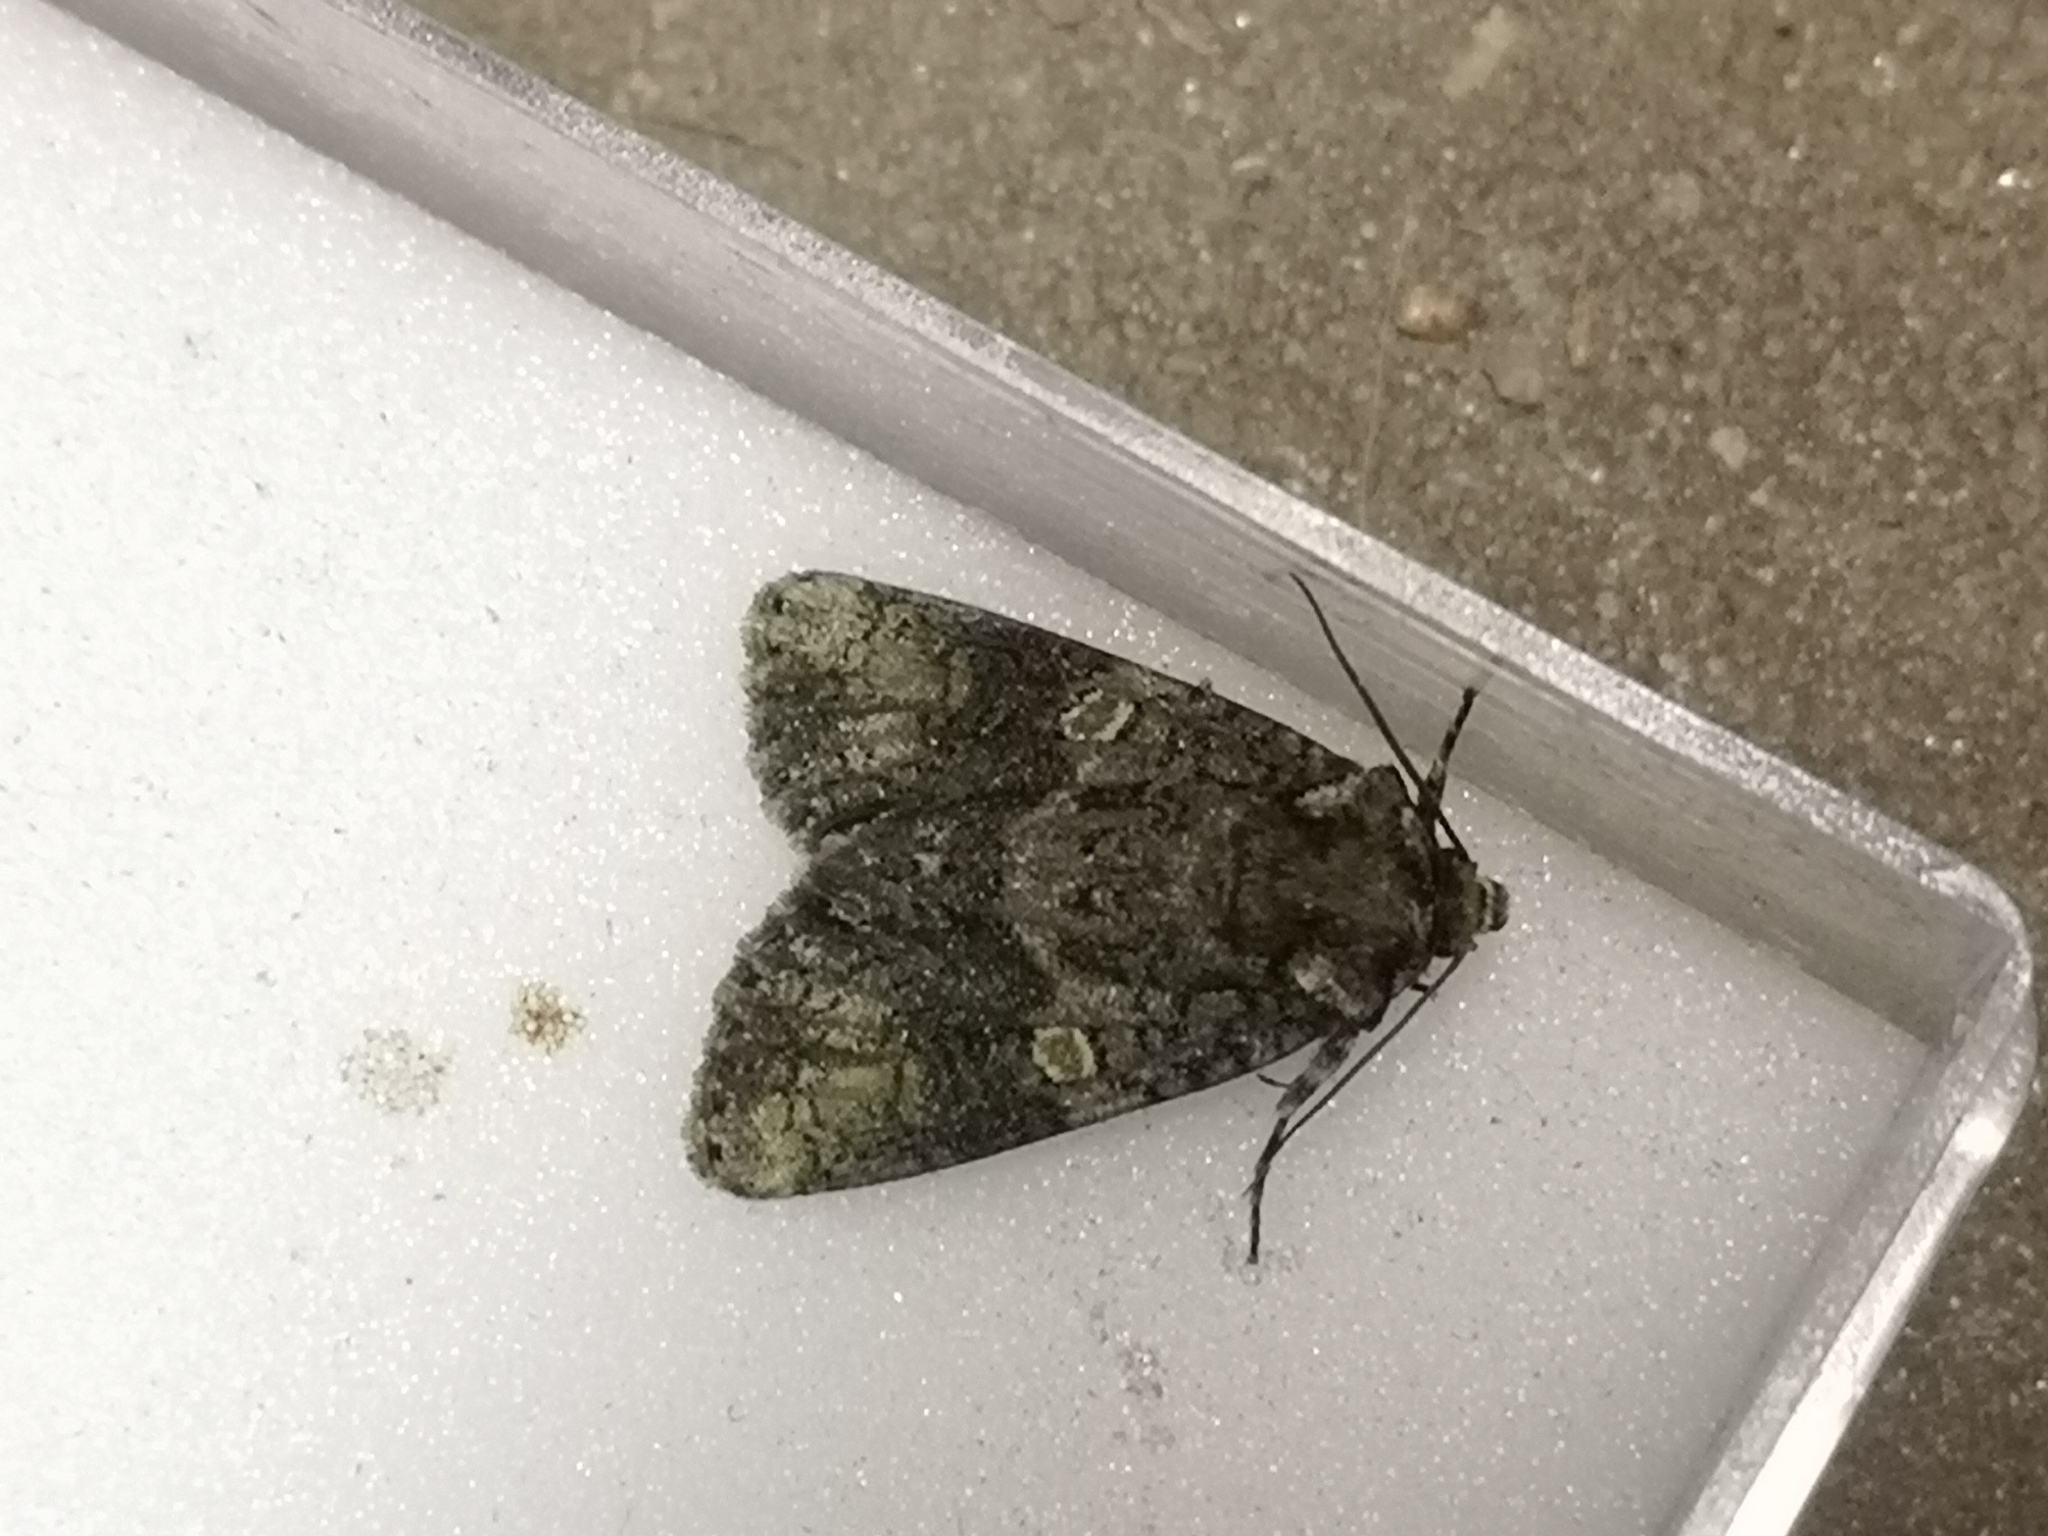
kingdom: Animalia
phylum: Arthropoda
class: Insecta
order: Lepidoptera
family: Noctuidae
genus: Craniophora
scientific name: Craniophora ligustri
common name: Coronet
